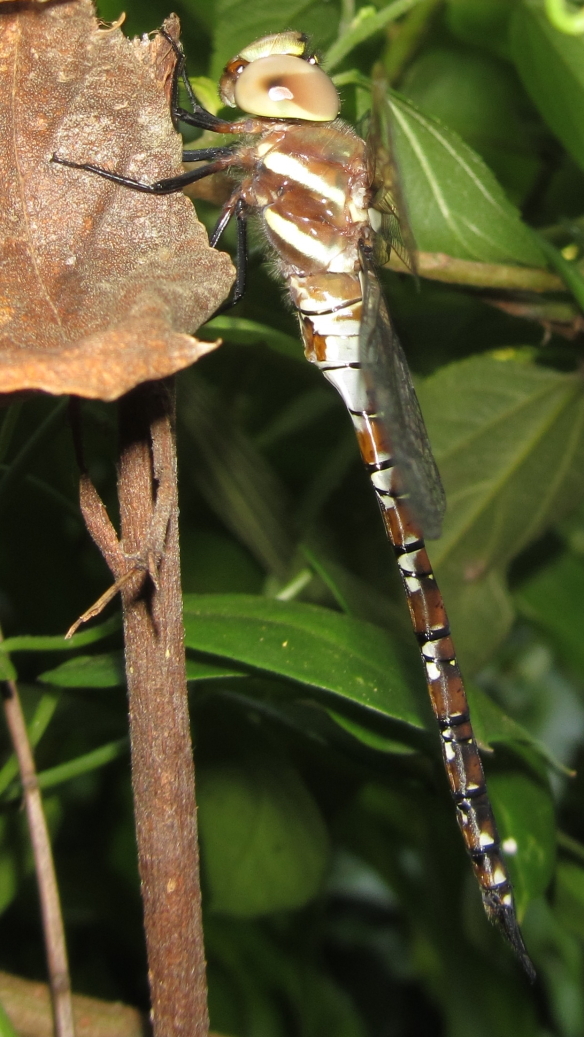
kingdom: Animalia
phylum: Arthropoda
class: Insecta
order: Odonata
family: Aeshnidae
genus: Anaciaeschna
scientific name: Anaciaeschna triangulifera
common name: Evening hawker
